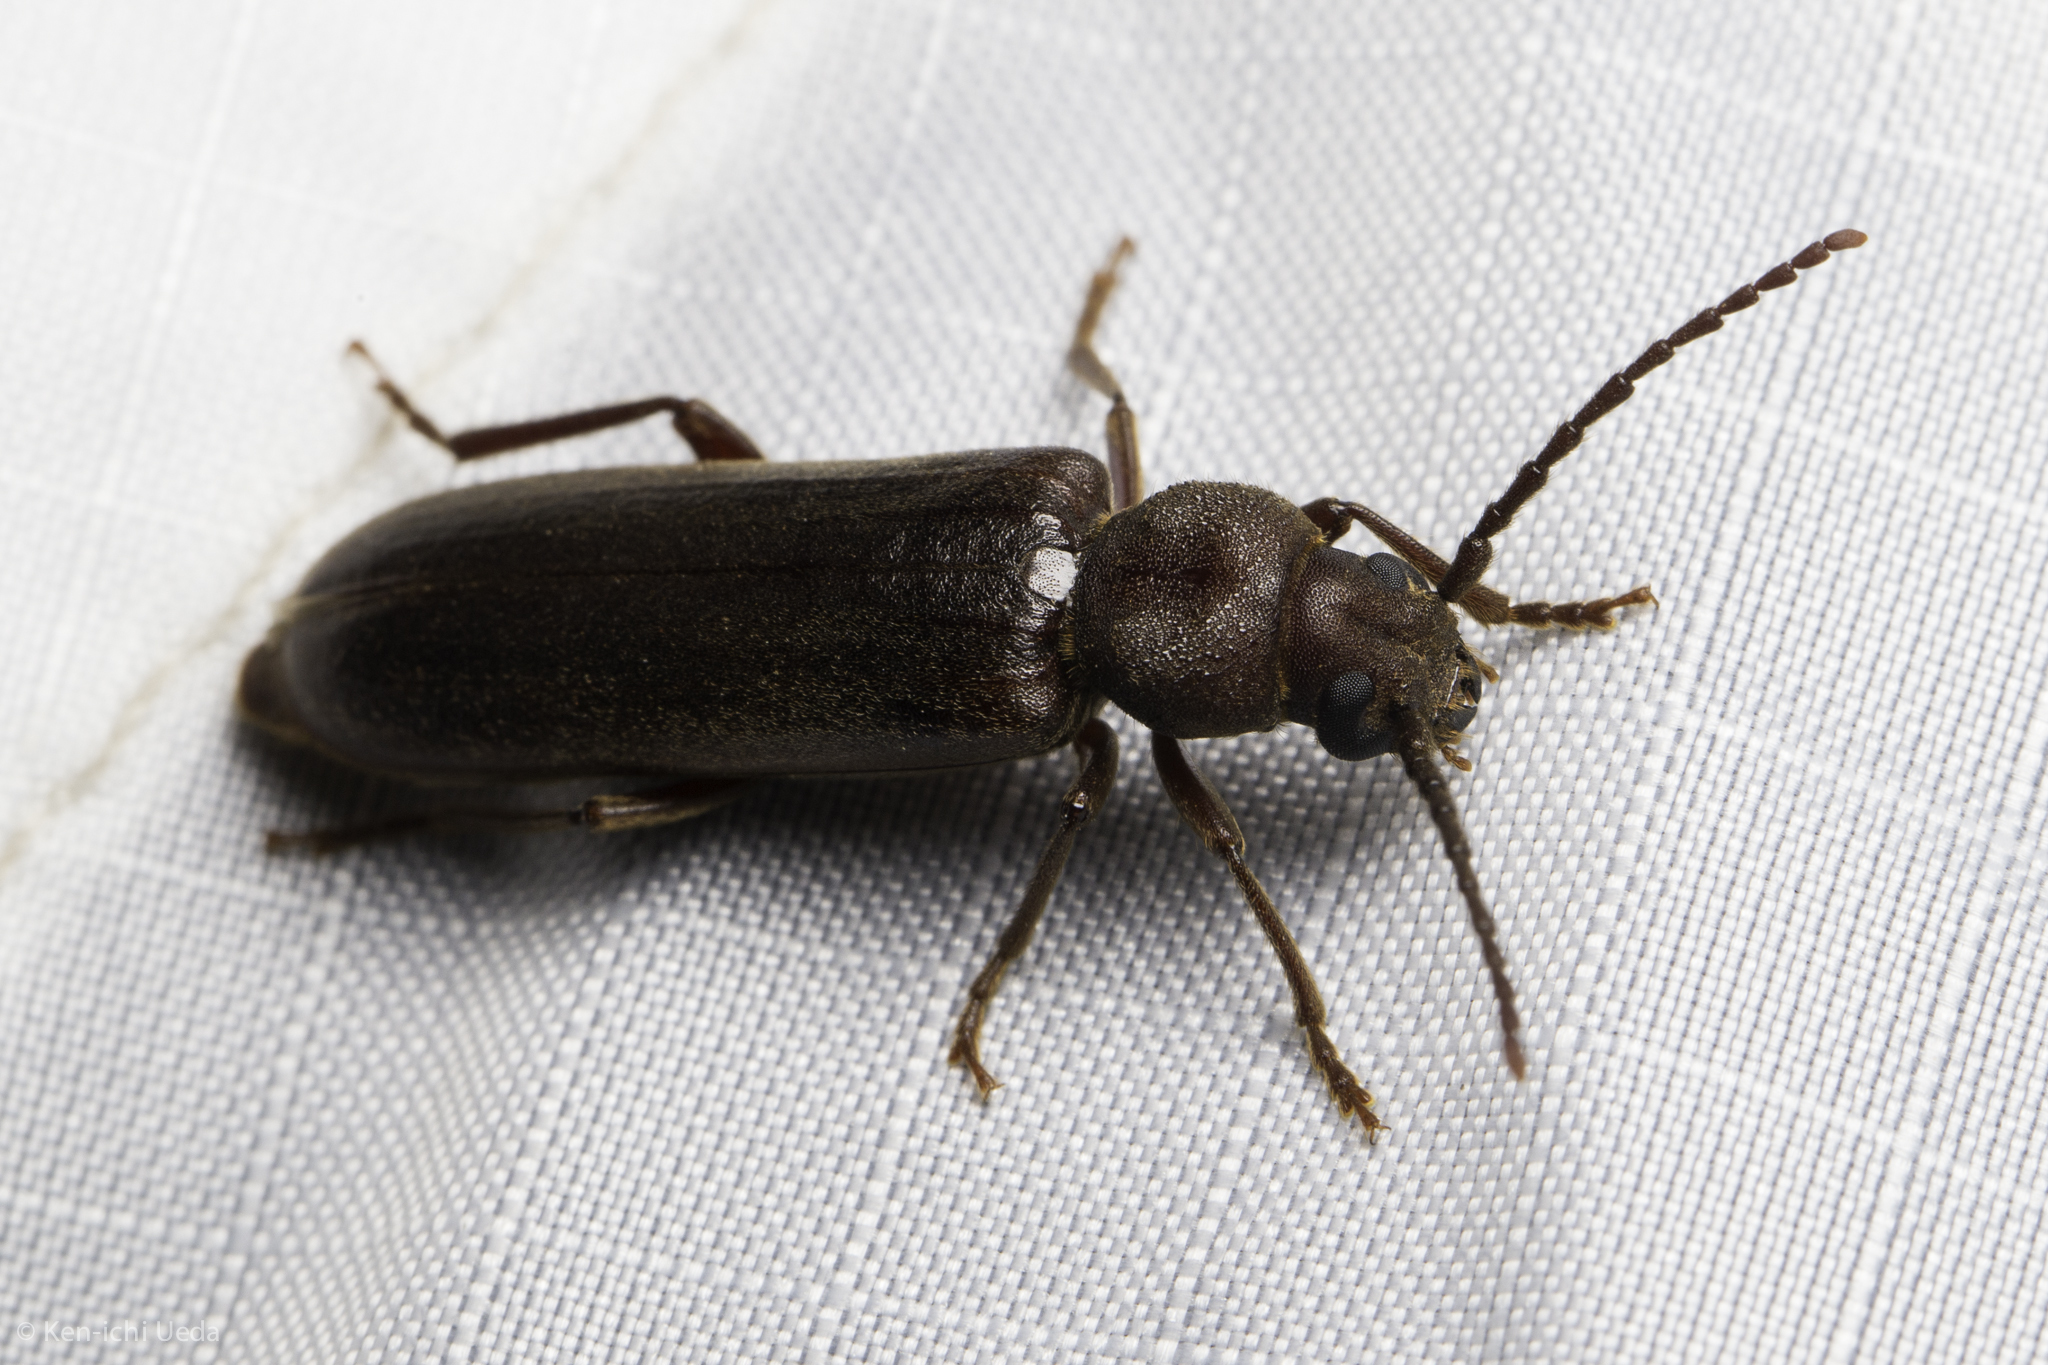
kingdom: Animalia
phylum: Arthropoda
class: Insecta
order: Coleoptera
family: Cerambycidae
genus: Megasemum
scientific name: Megasemum asperum
